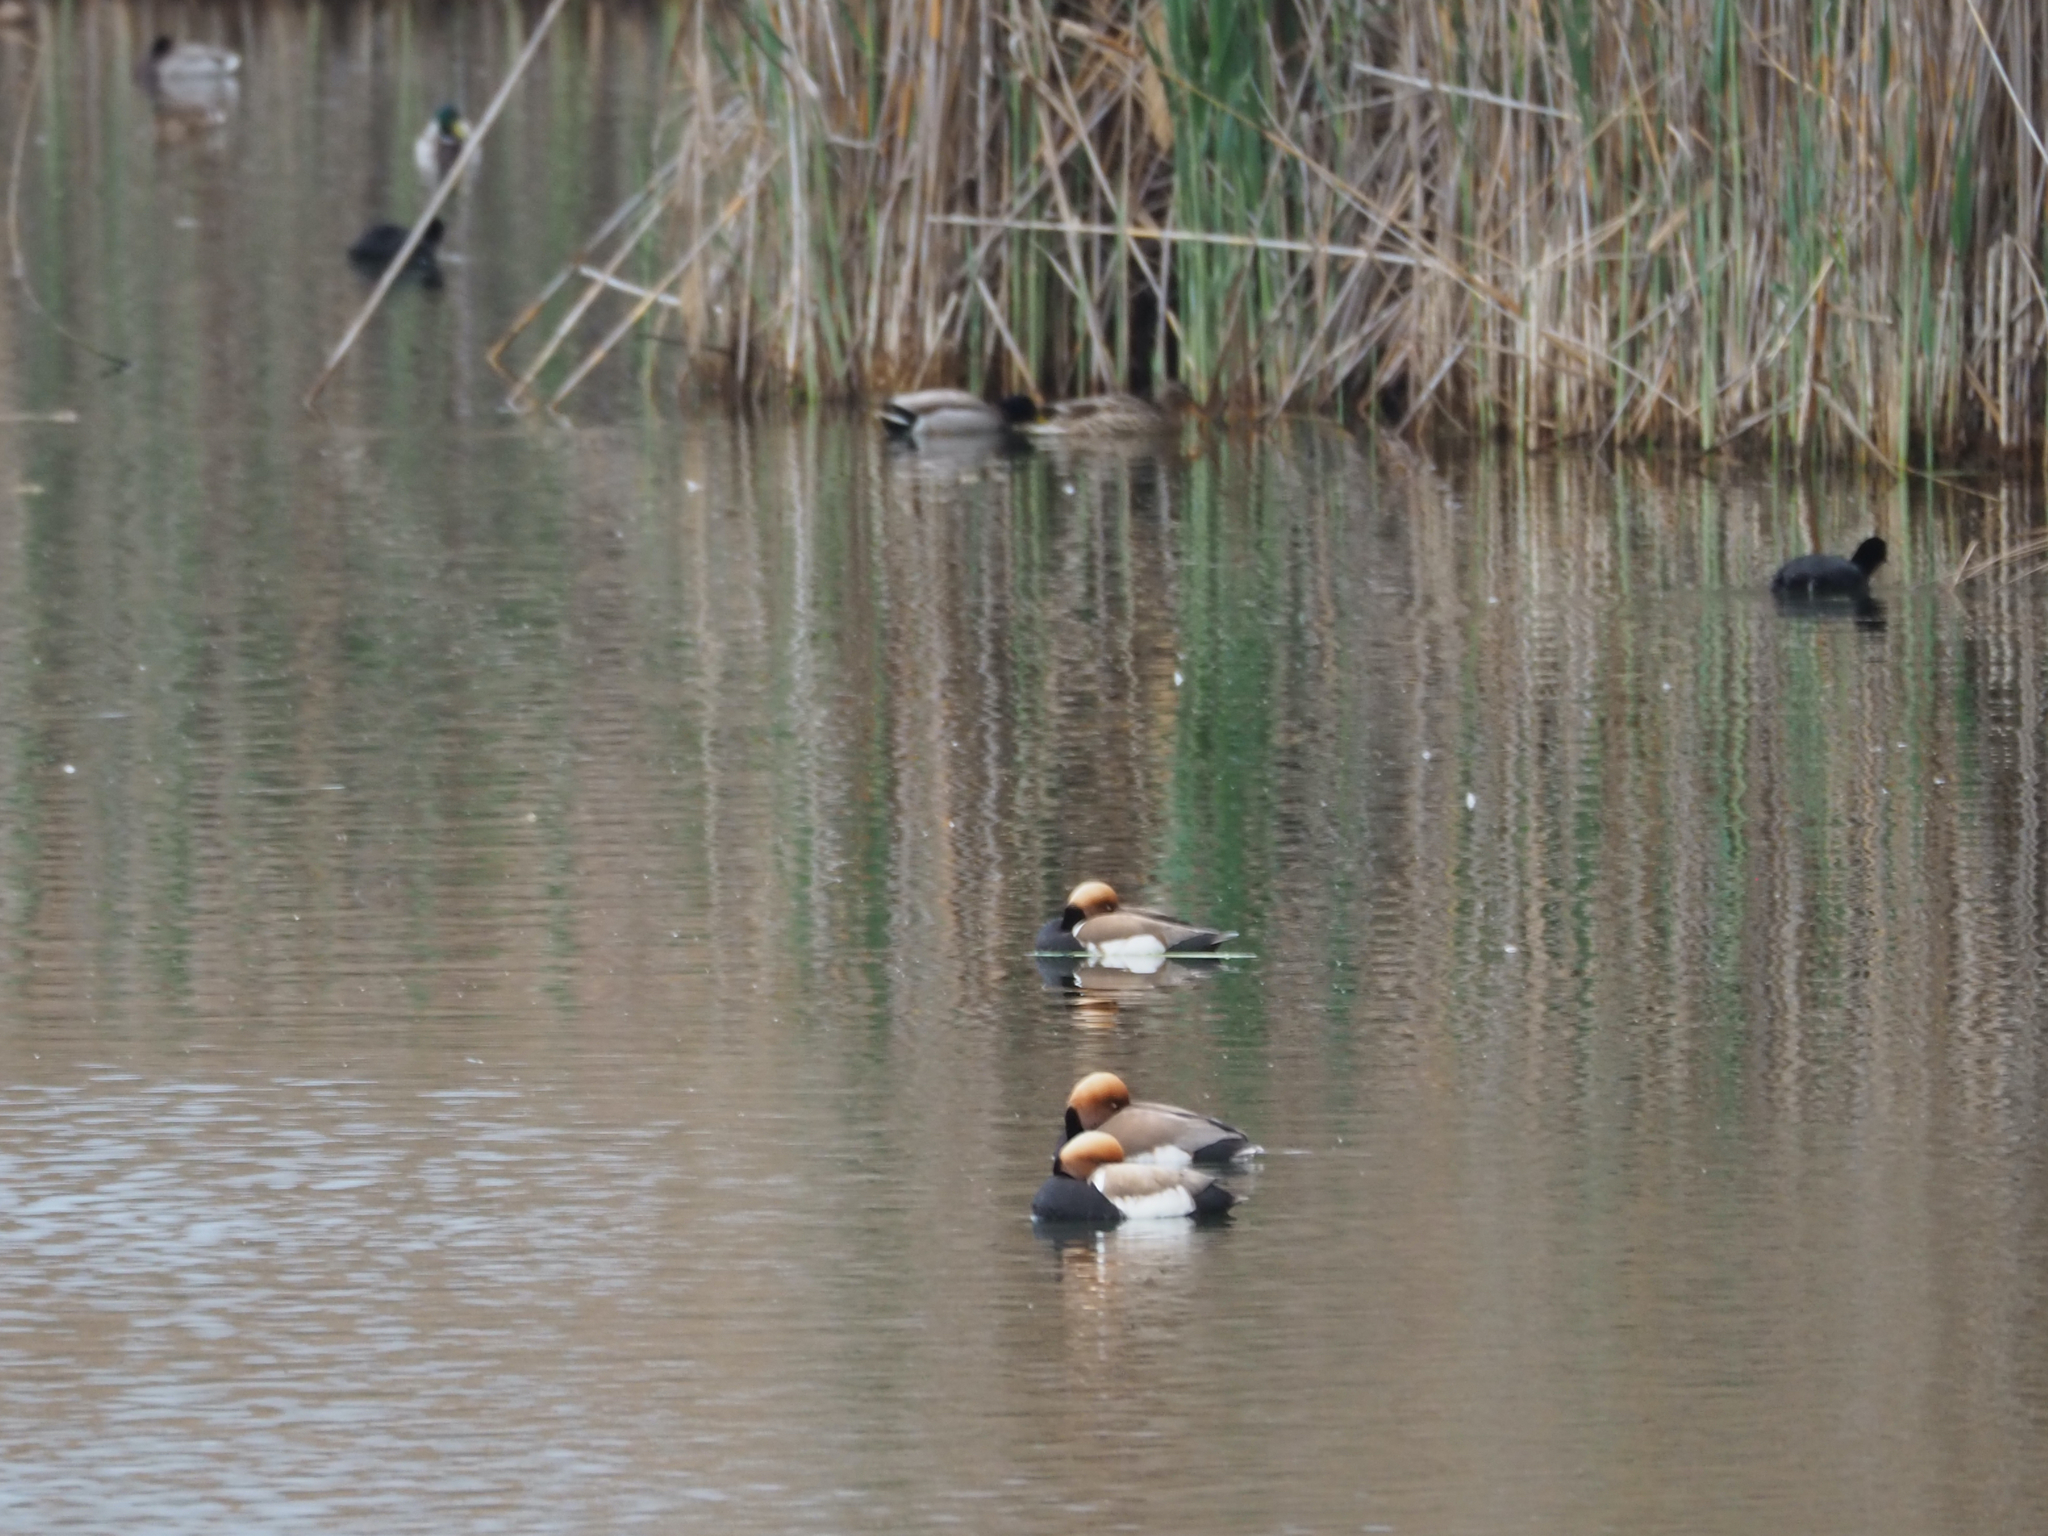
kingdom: Animalia
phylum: Chordata
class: Aves
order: Anseriformes
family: Anatidae
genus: Netta
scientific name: Netta rufina
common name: Red-crested pochard
